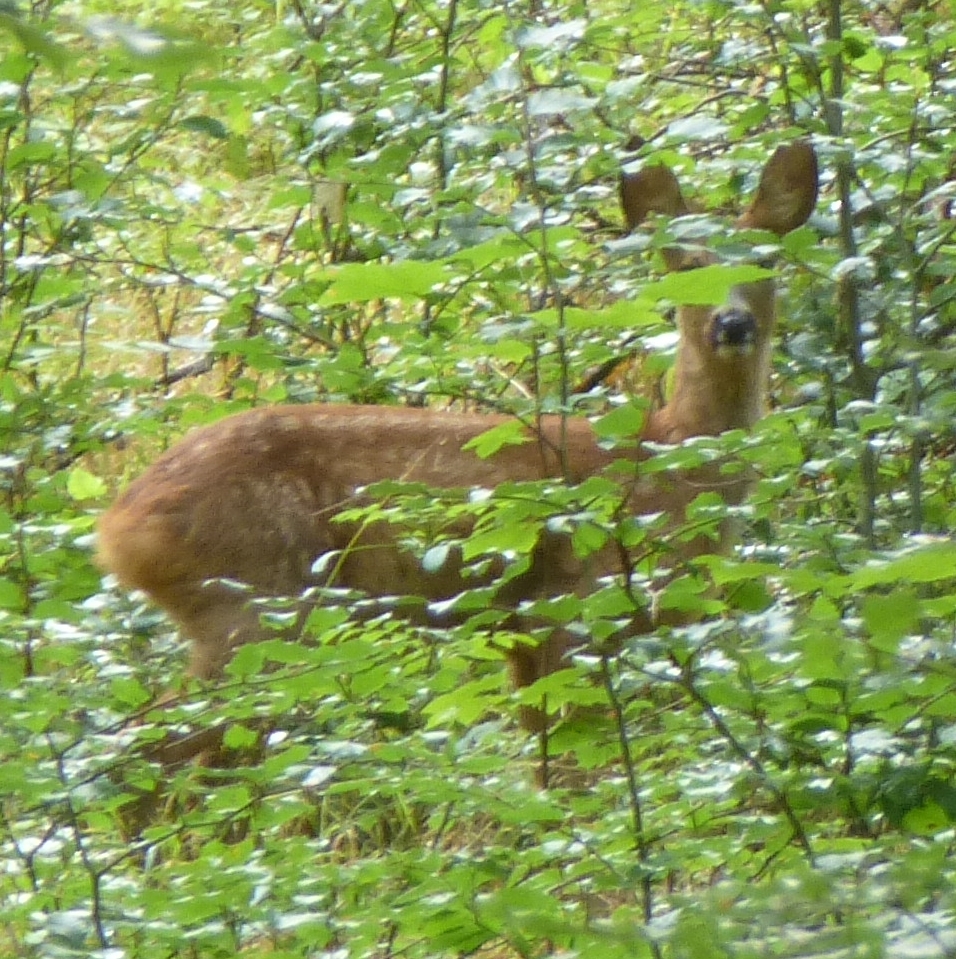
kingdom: Animalia
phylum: Chordata
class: Mammalia
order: Artiodactyla
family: Cervidae
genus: Capreolus
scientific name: Capreolus capreolus
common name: Western roe deer
